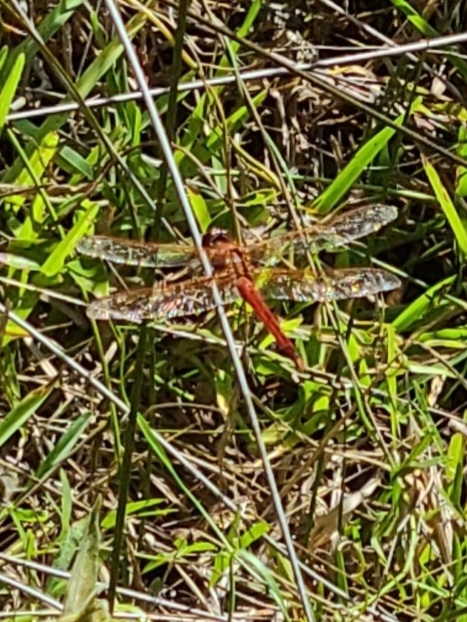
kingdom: Animalia
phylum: Arthropoda
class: Insecta
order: Odonata
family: Libellulidae
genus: Libellula
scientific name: Libellula needhami
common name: Needham's skimmer
